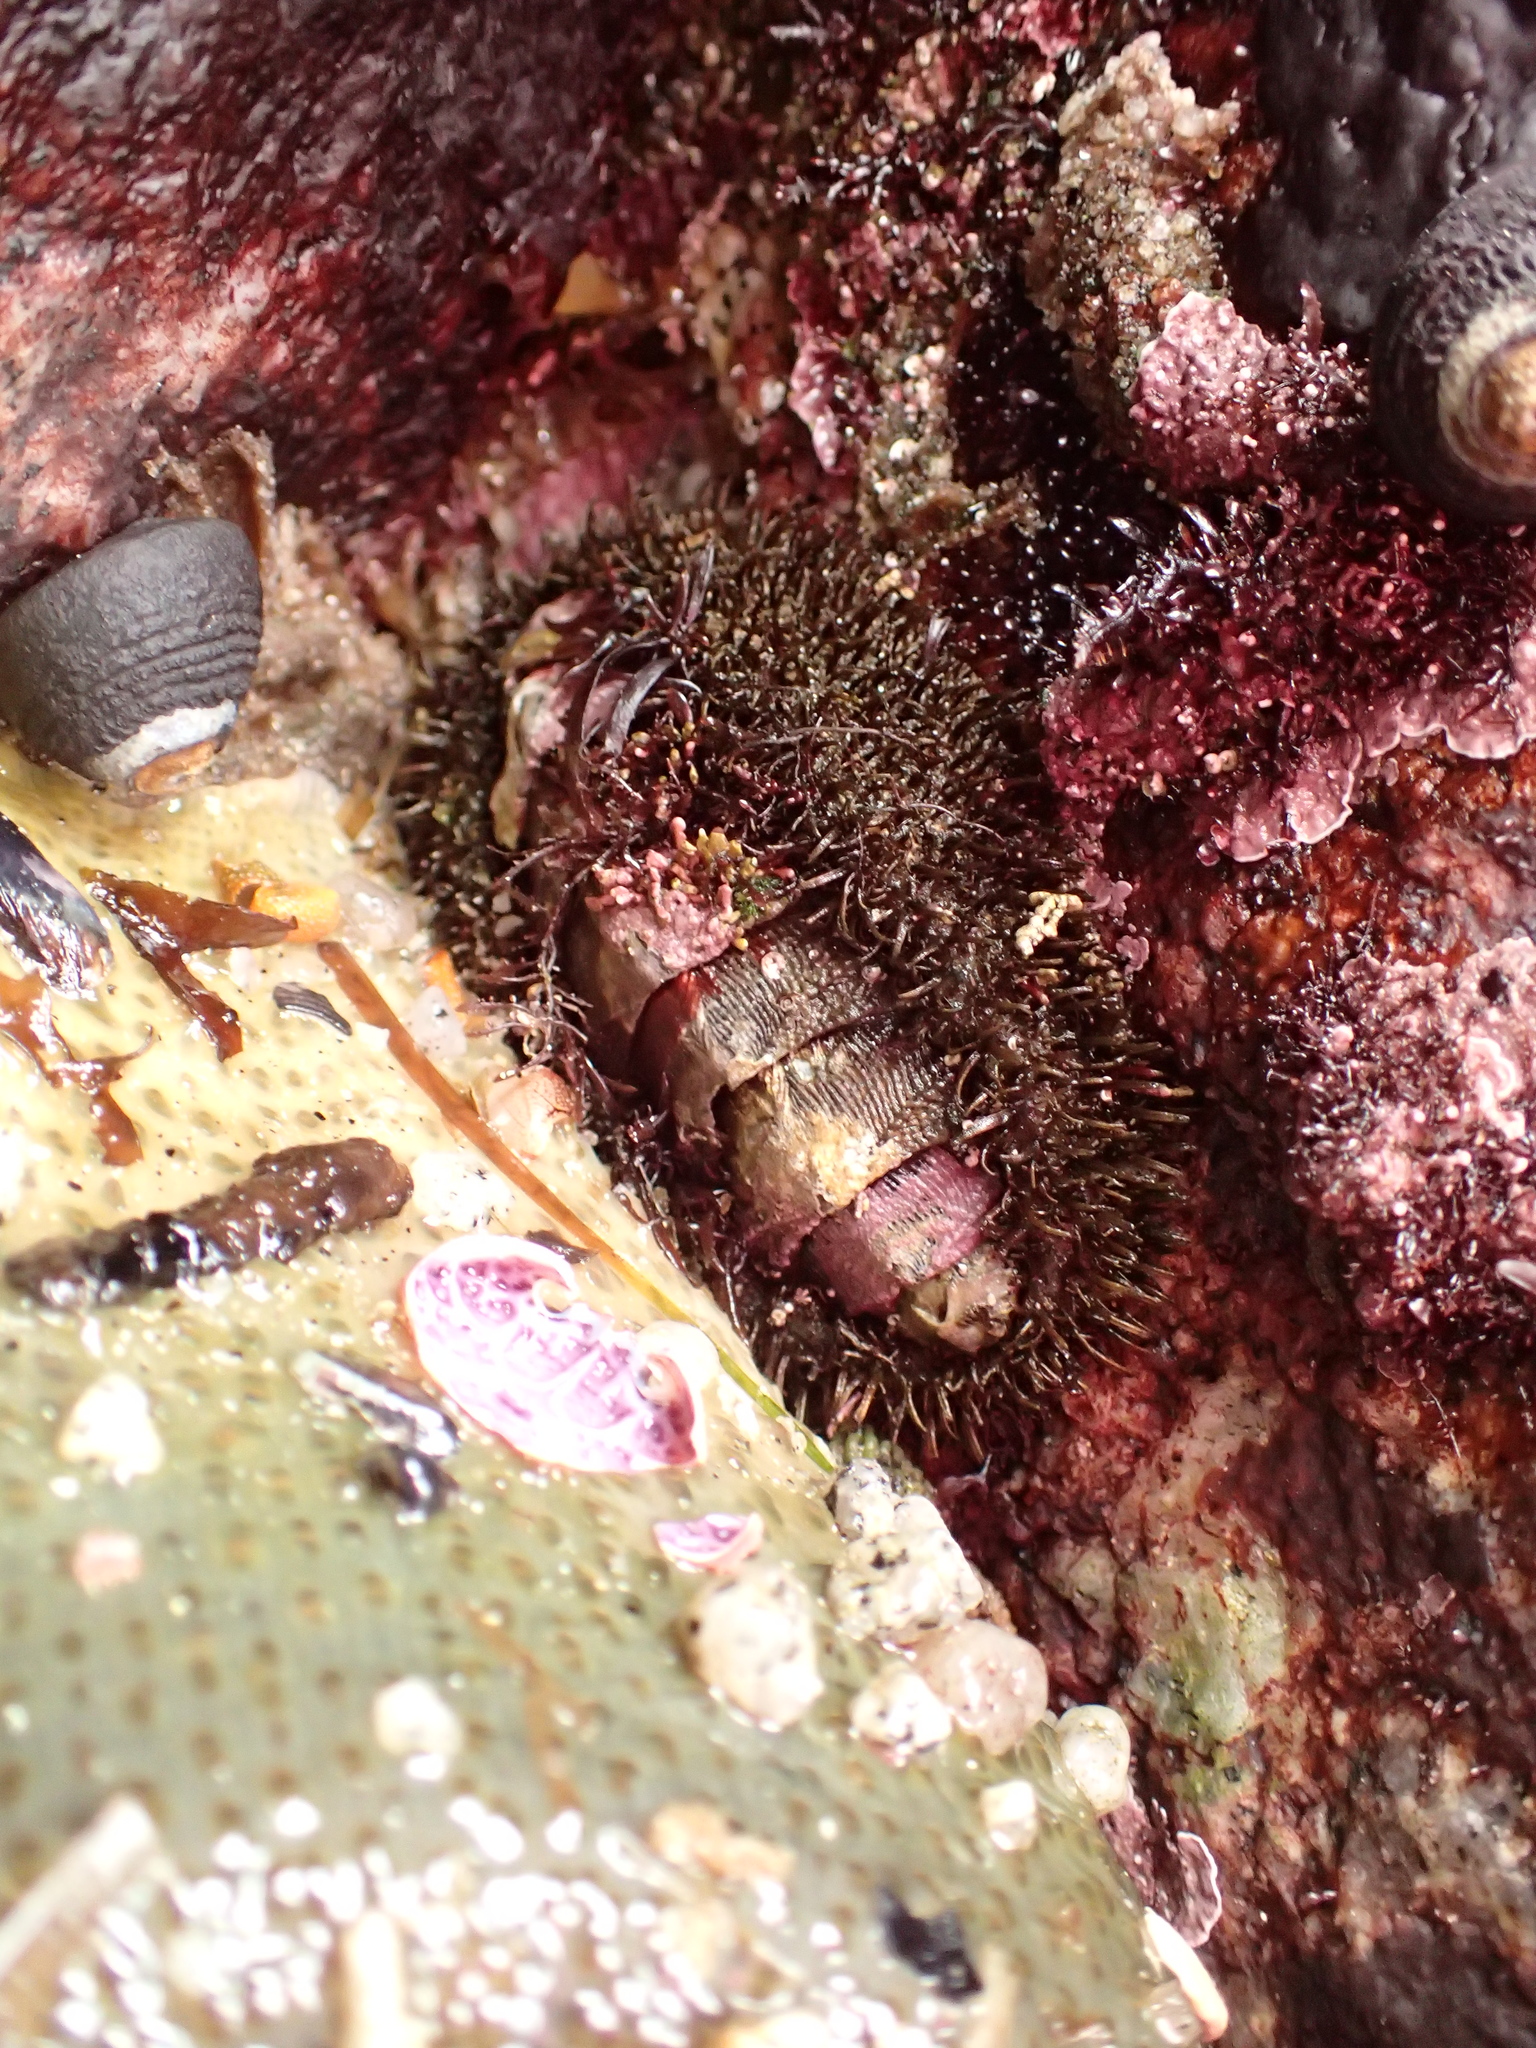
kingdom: Animalia
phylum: Mollusca
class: Polyplacophora
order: Chitonida
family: Mopaliidae
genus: Mopalia
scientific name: Mopalia muscosa
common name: Mossy chiton
